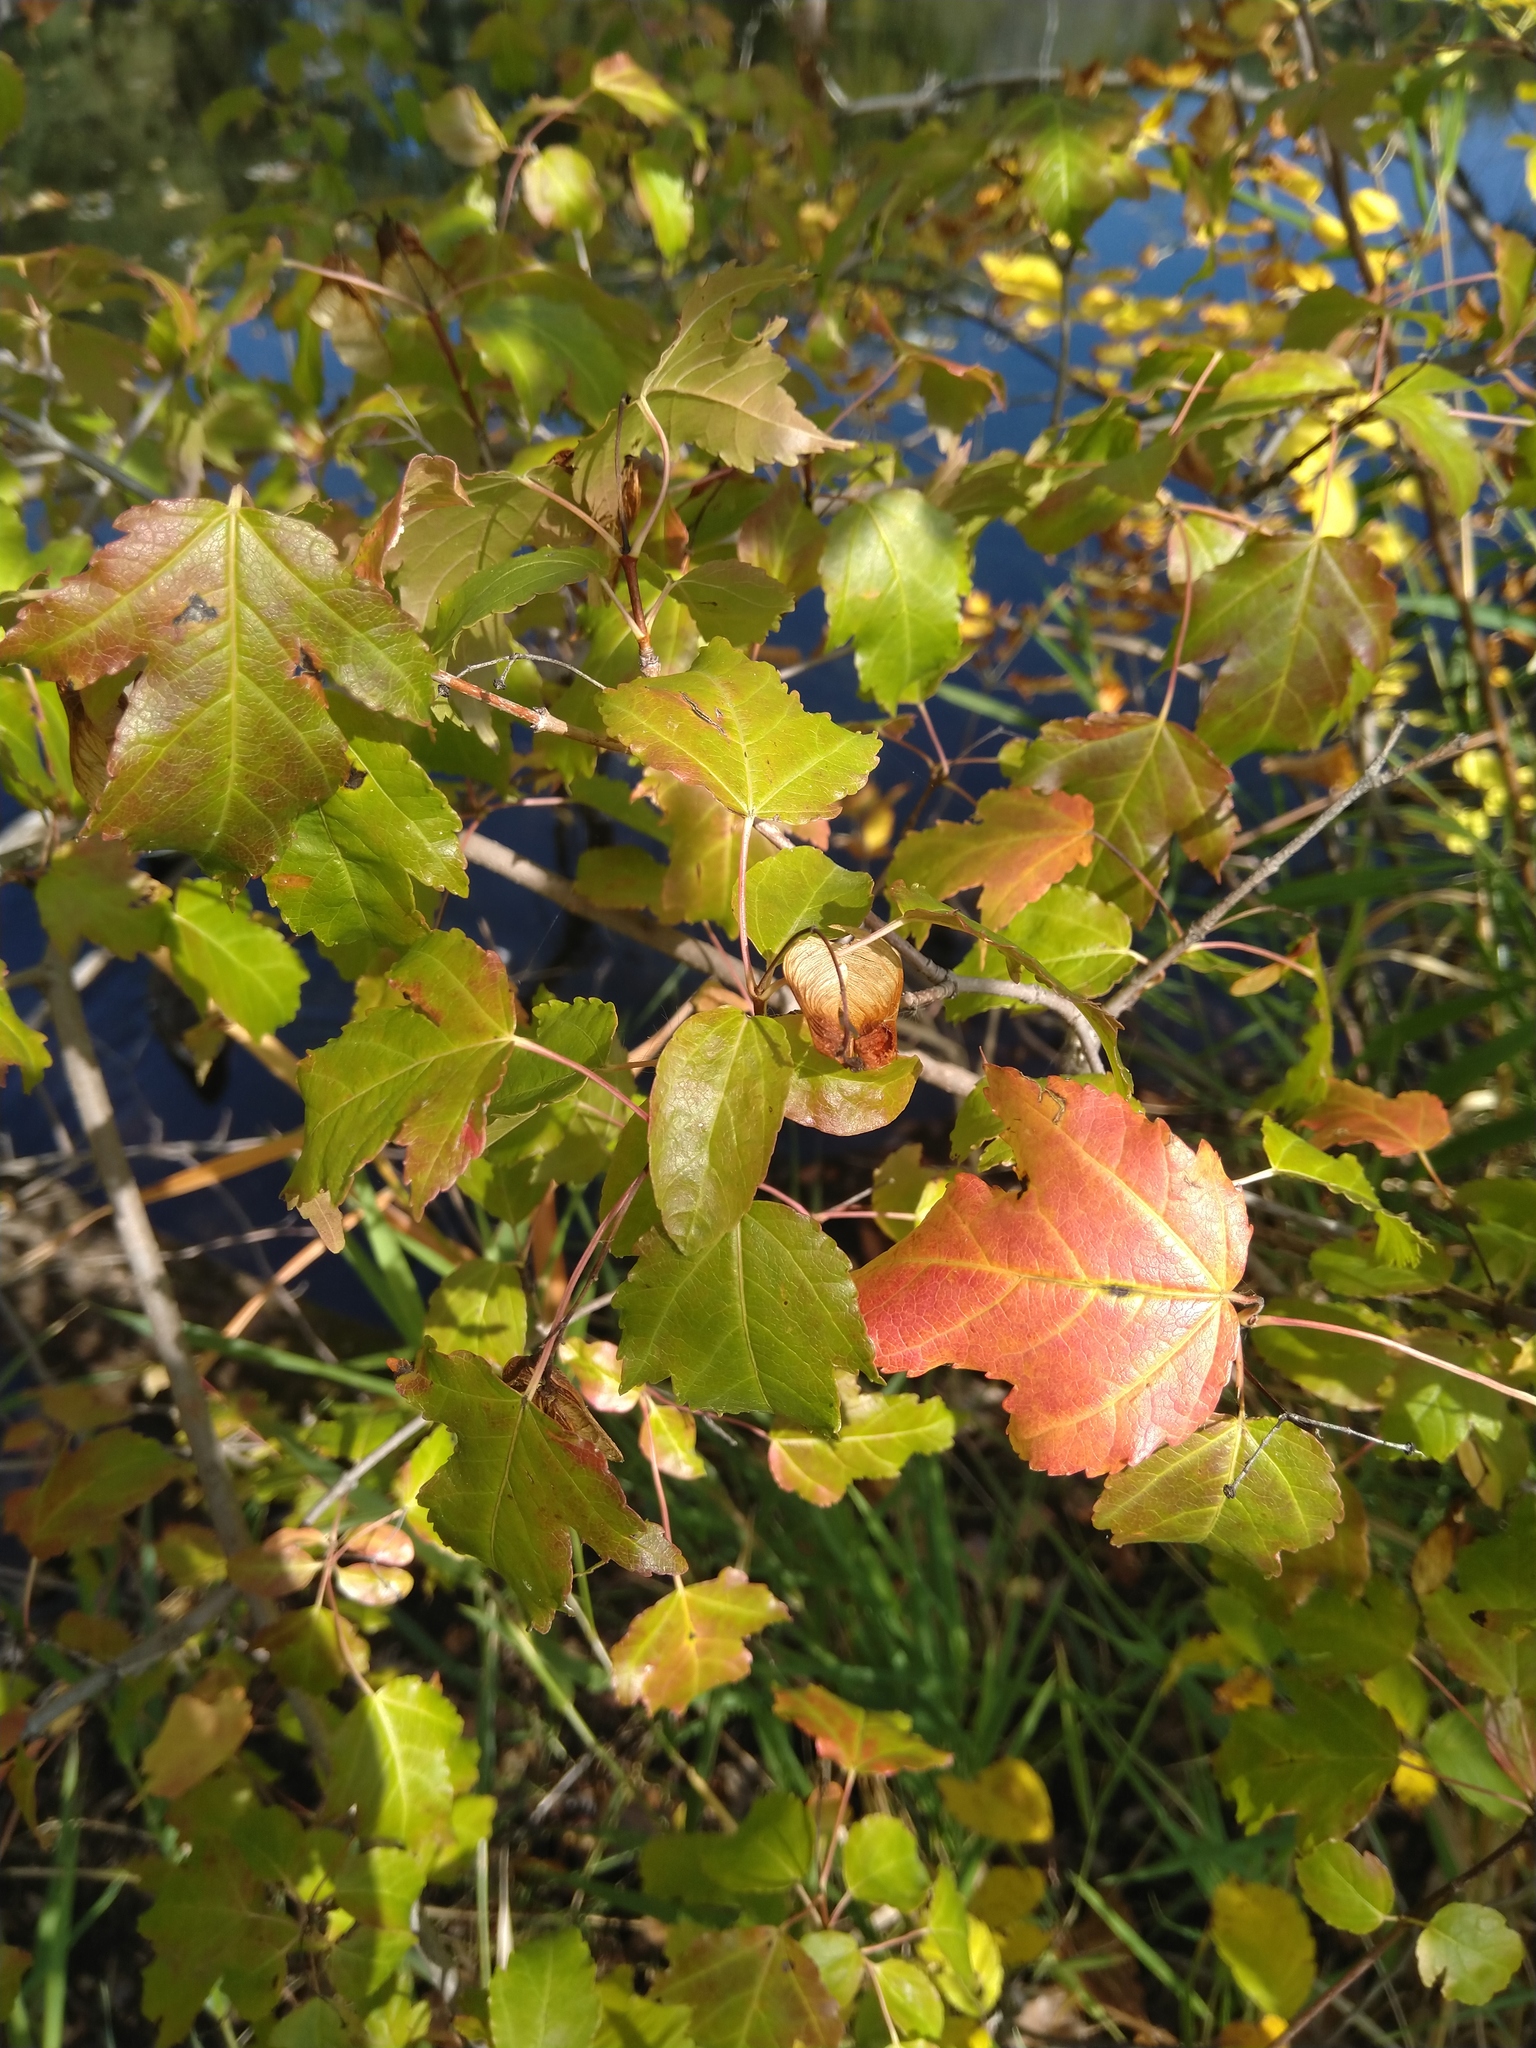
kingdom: Plantae
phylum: Tracheophyta
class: Magnoliopsida
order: Sapindales
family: Sapindaceae
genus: Acer
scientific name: Acer tataricum
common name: Tartar maple
